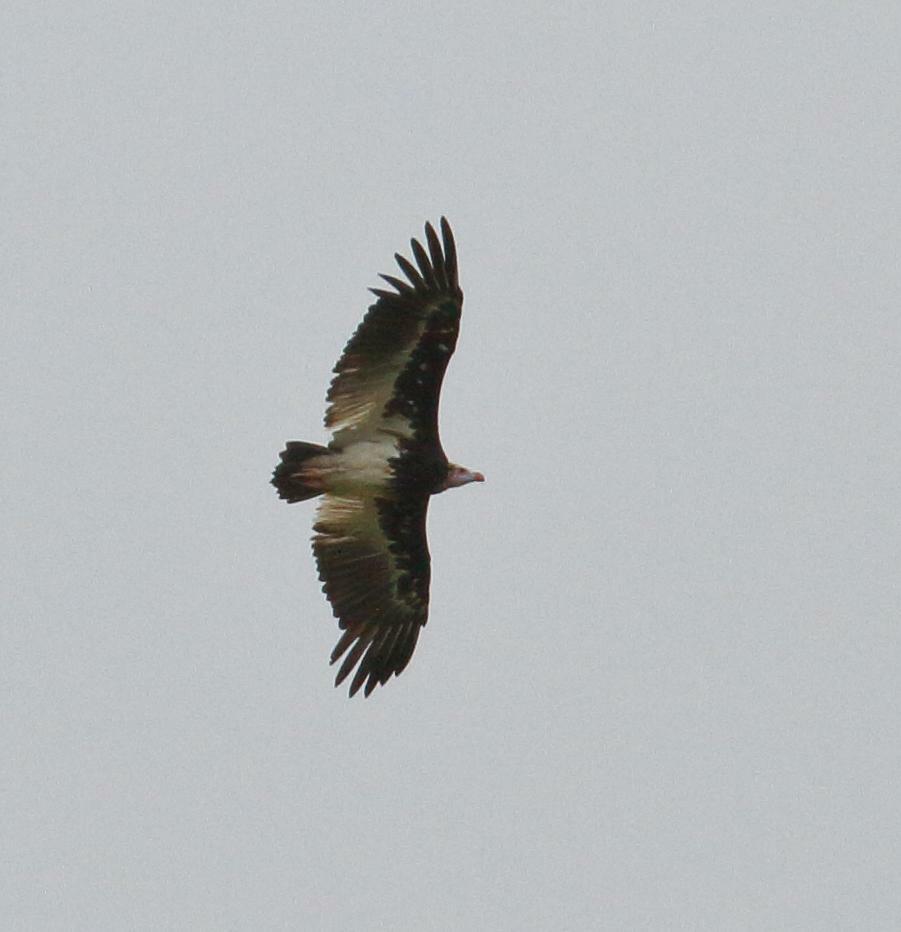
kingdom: Animalia
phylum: Chordata
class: Aves
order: Accipitriformes
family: Accipitridae
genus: Trigonoceps
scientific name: Trigonoceps occipitalis
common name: White-headed vulture
